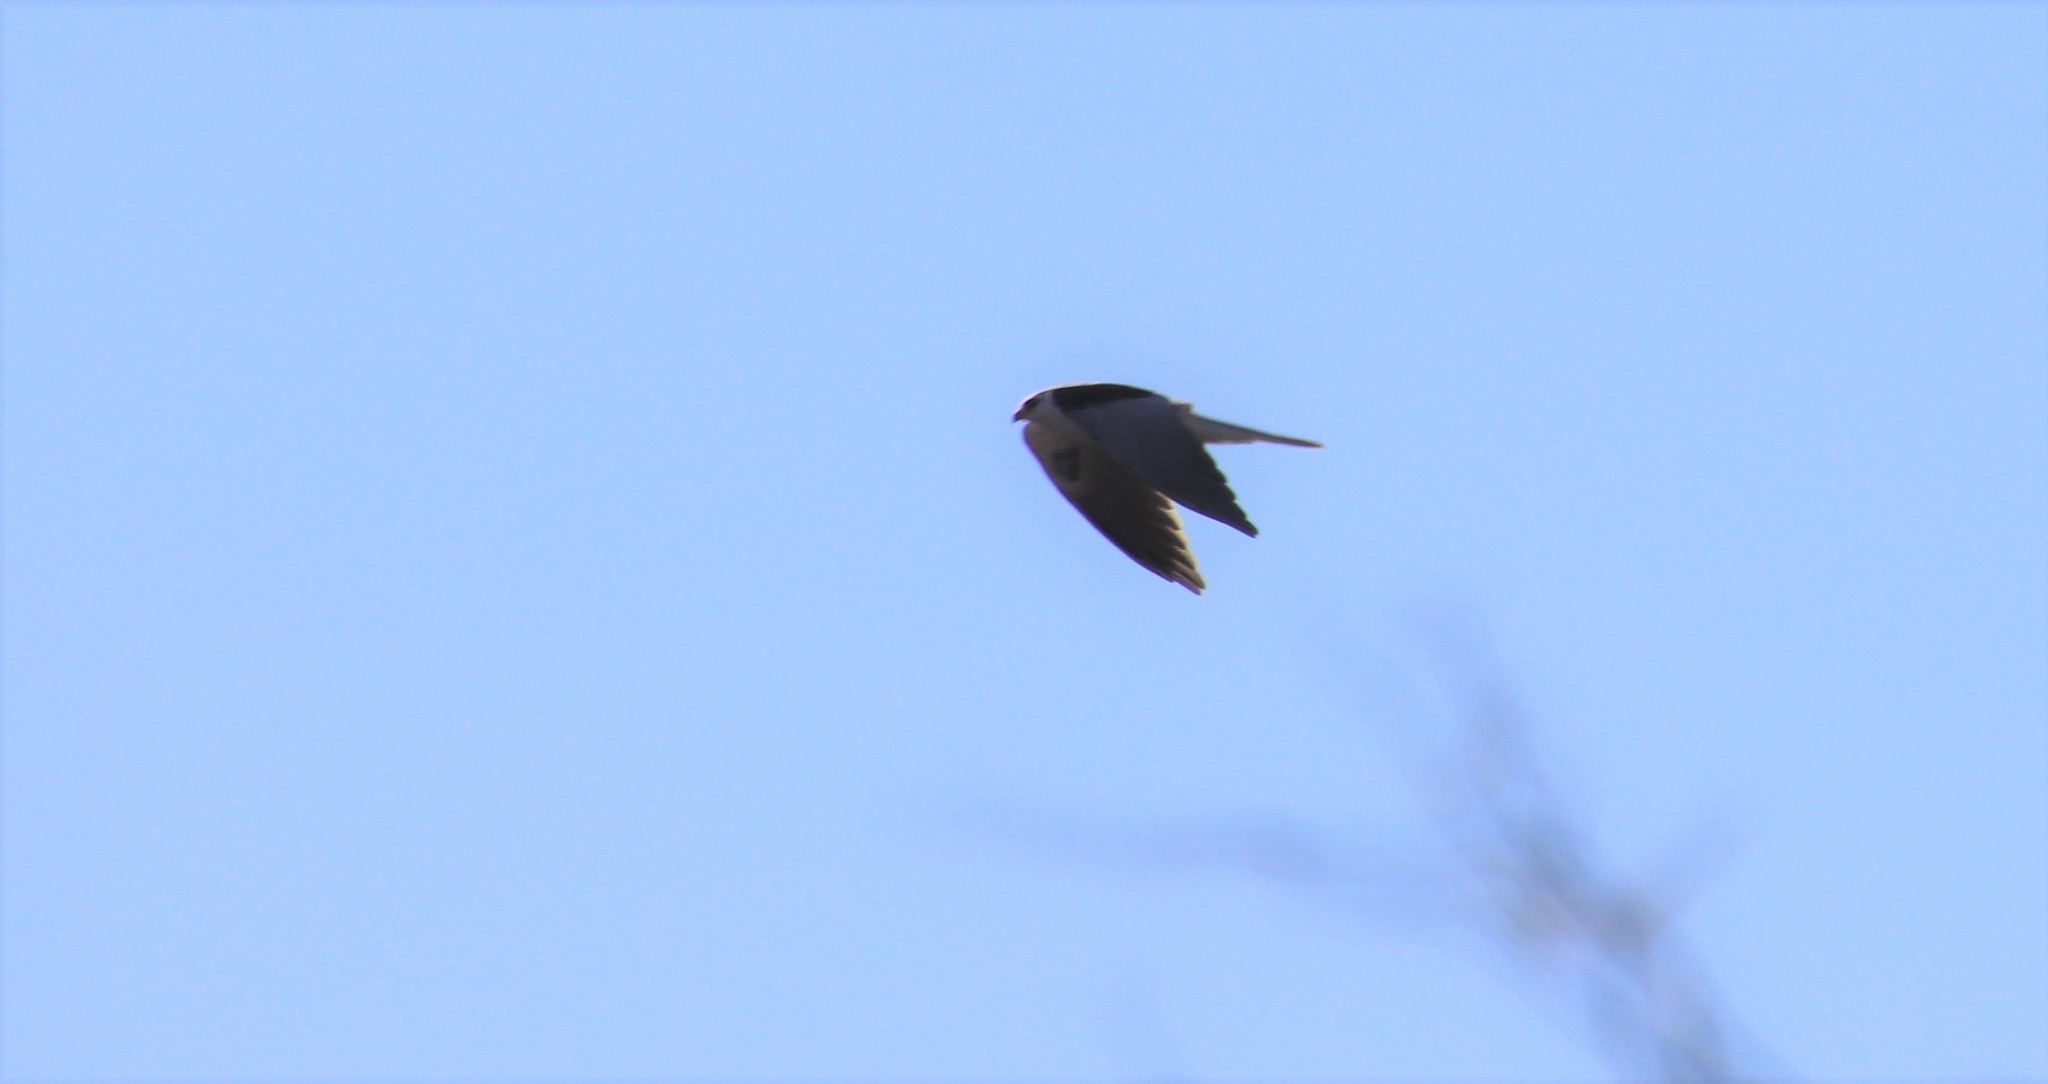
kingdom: Animalia
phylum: Chordata
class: Aves
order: Accipitriformes
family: Accipitridae
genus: Elanus
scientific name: Elanus leucurus
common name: White-tailed kite
